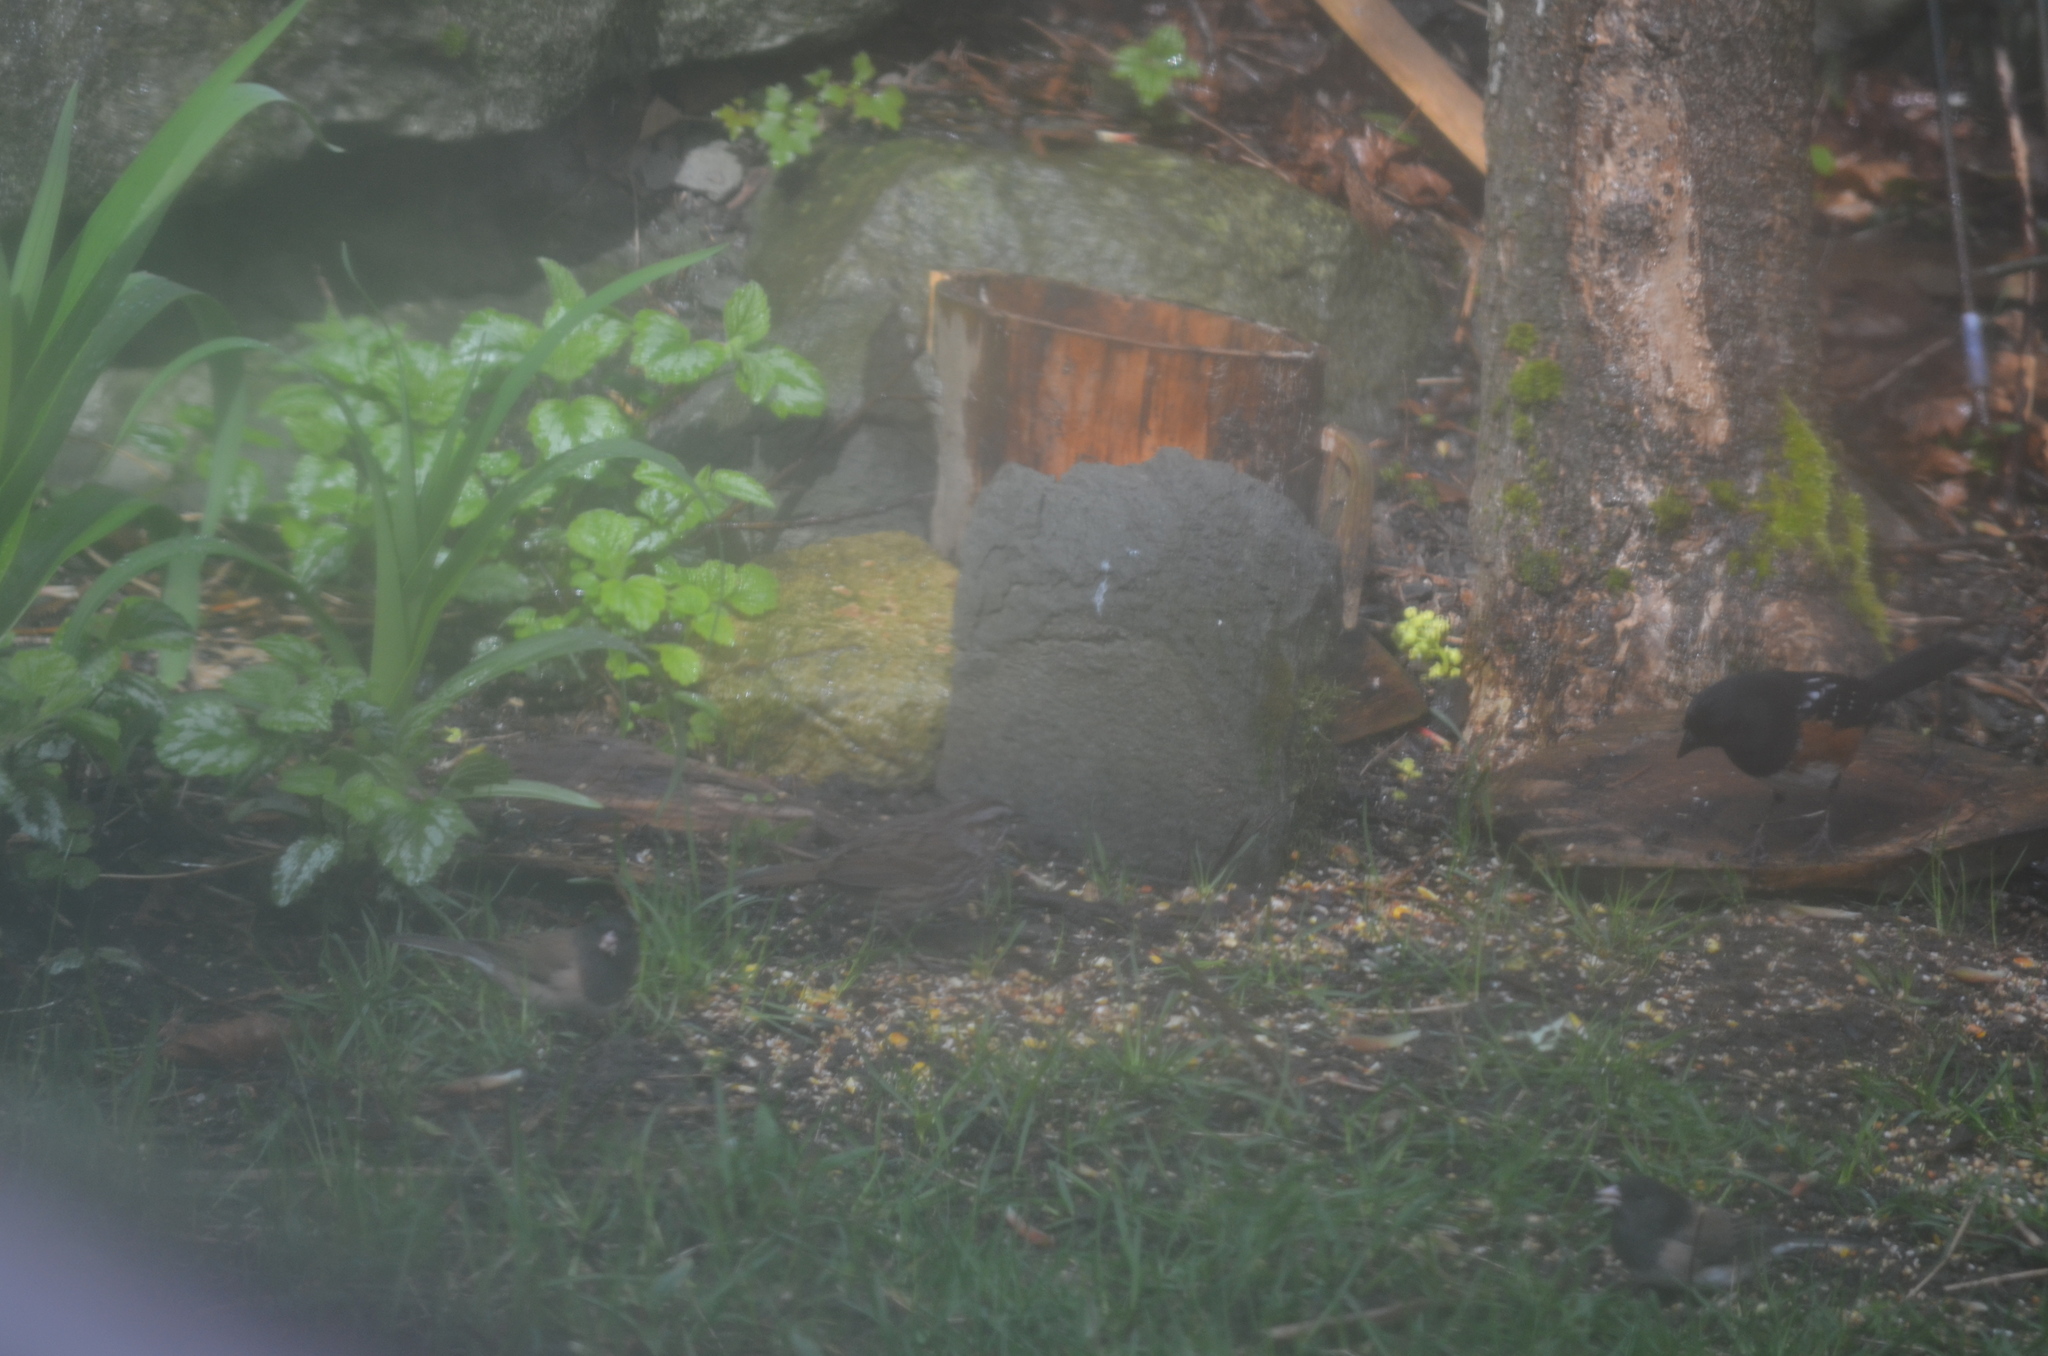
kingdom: Animalia
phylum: Chordata
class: Aves
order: Passeriformes
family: Passerellidae
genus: Melospiza
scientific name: Melospiza melodia
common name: Song sparrow
